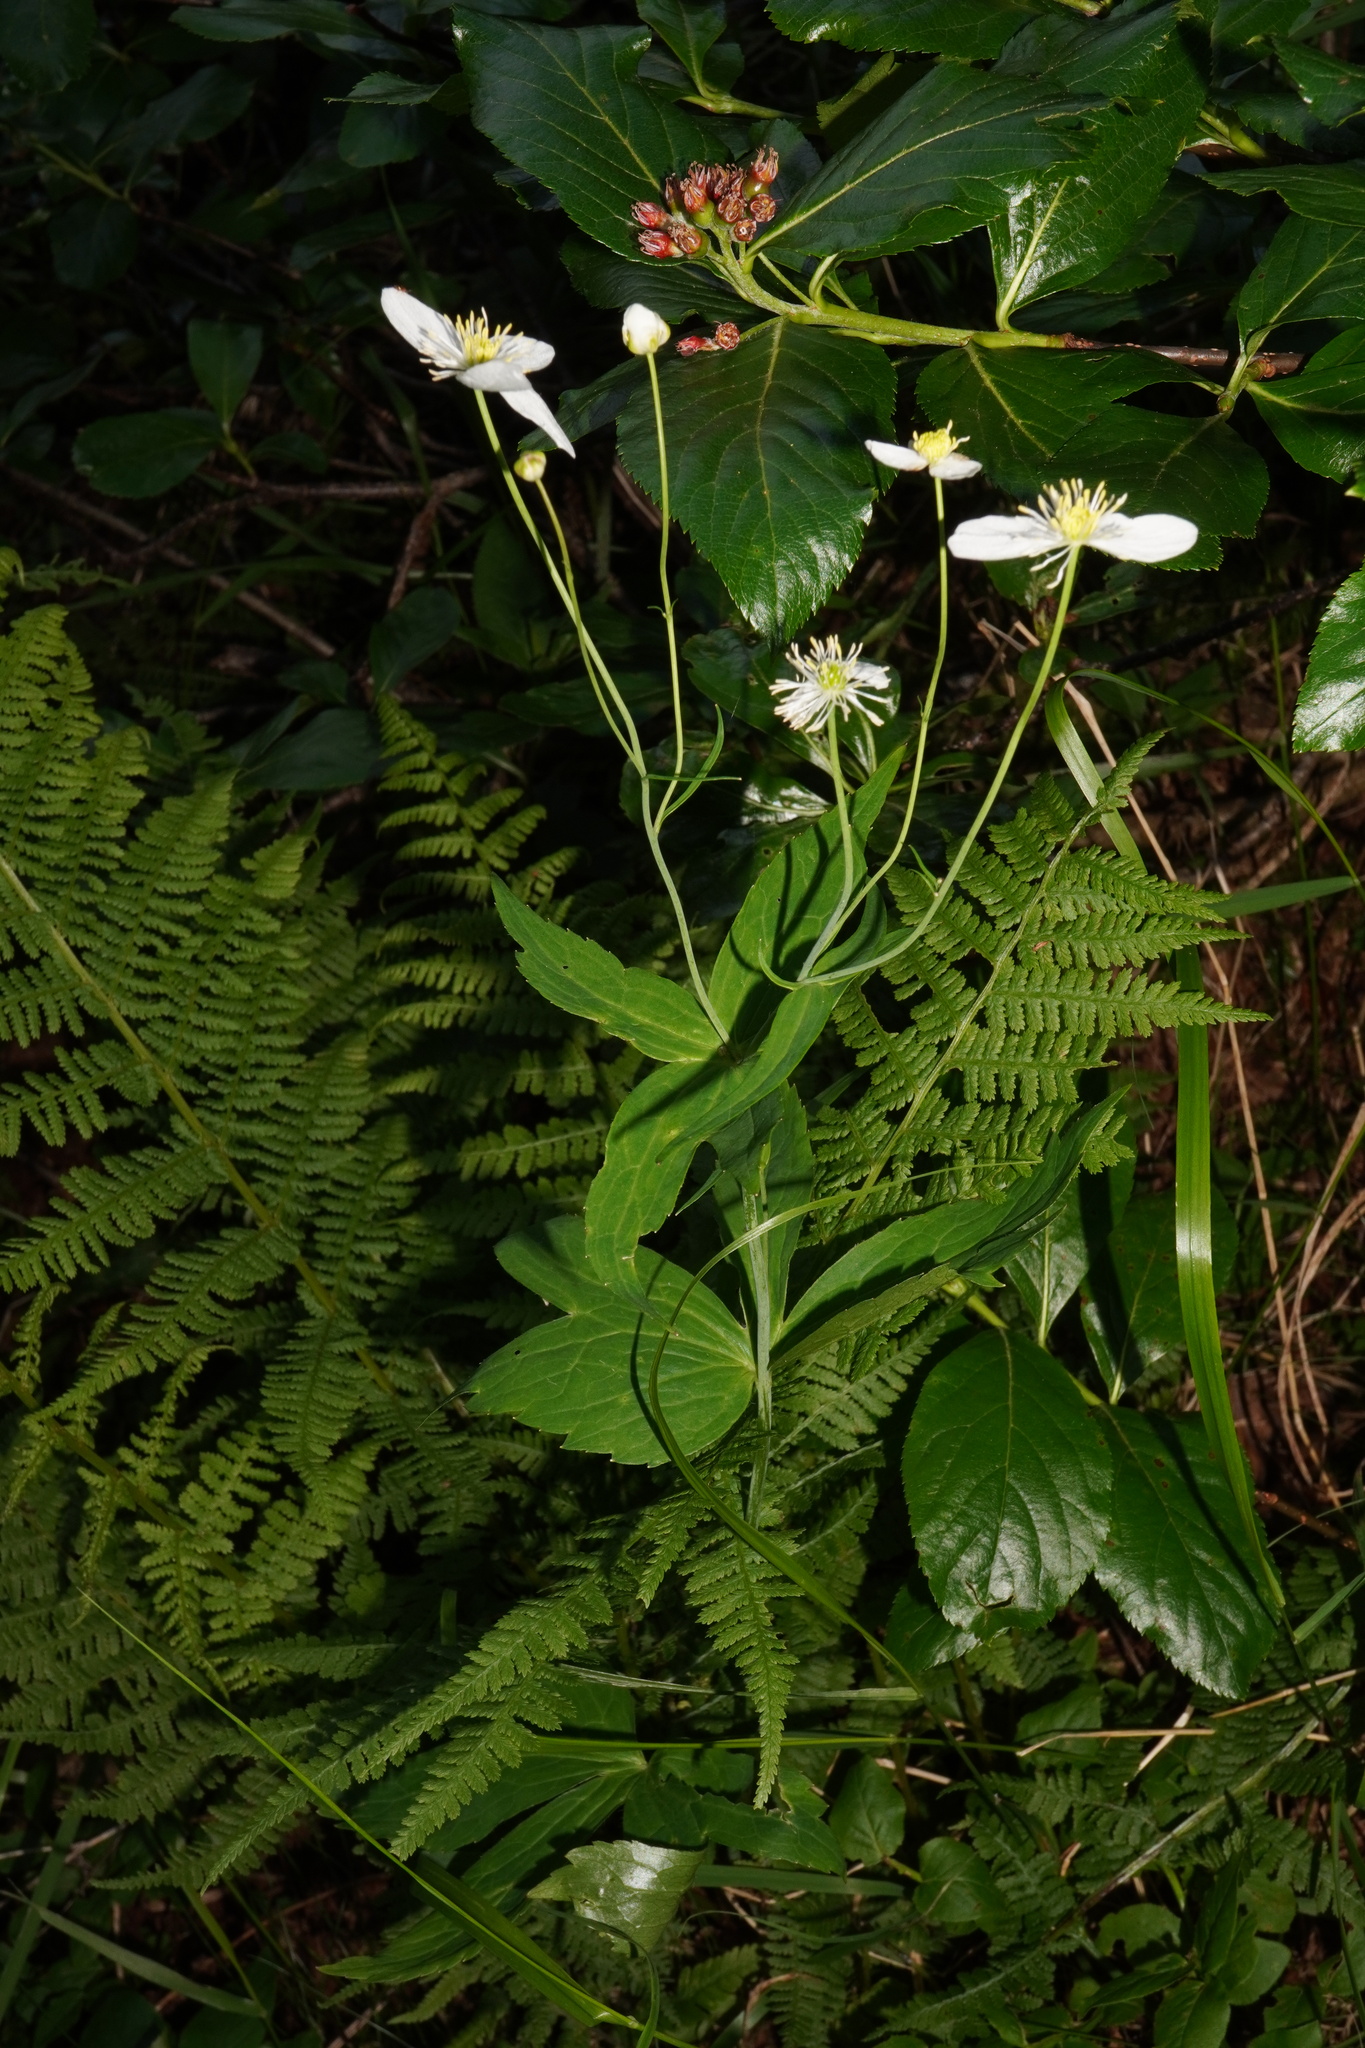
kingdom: Plantae
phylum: Tracheophyta
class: Magnoliopsida
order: Ranunculales
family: Ranunculaceae
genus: Ranunculus
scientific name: Ranunculus platanifolius
